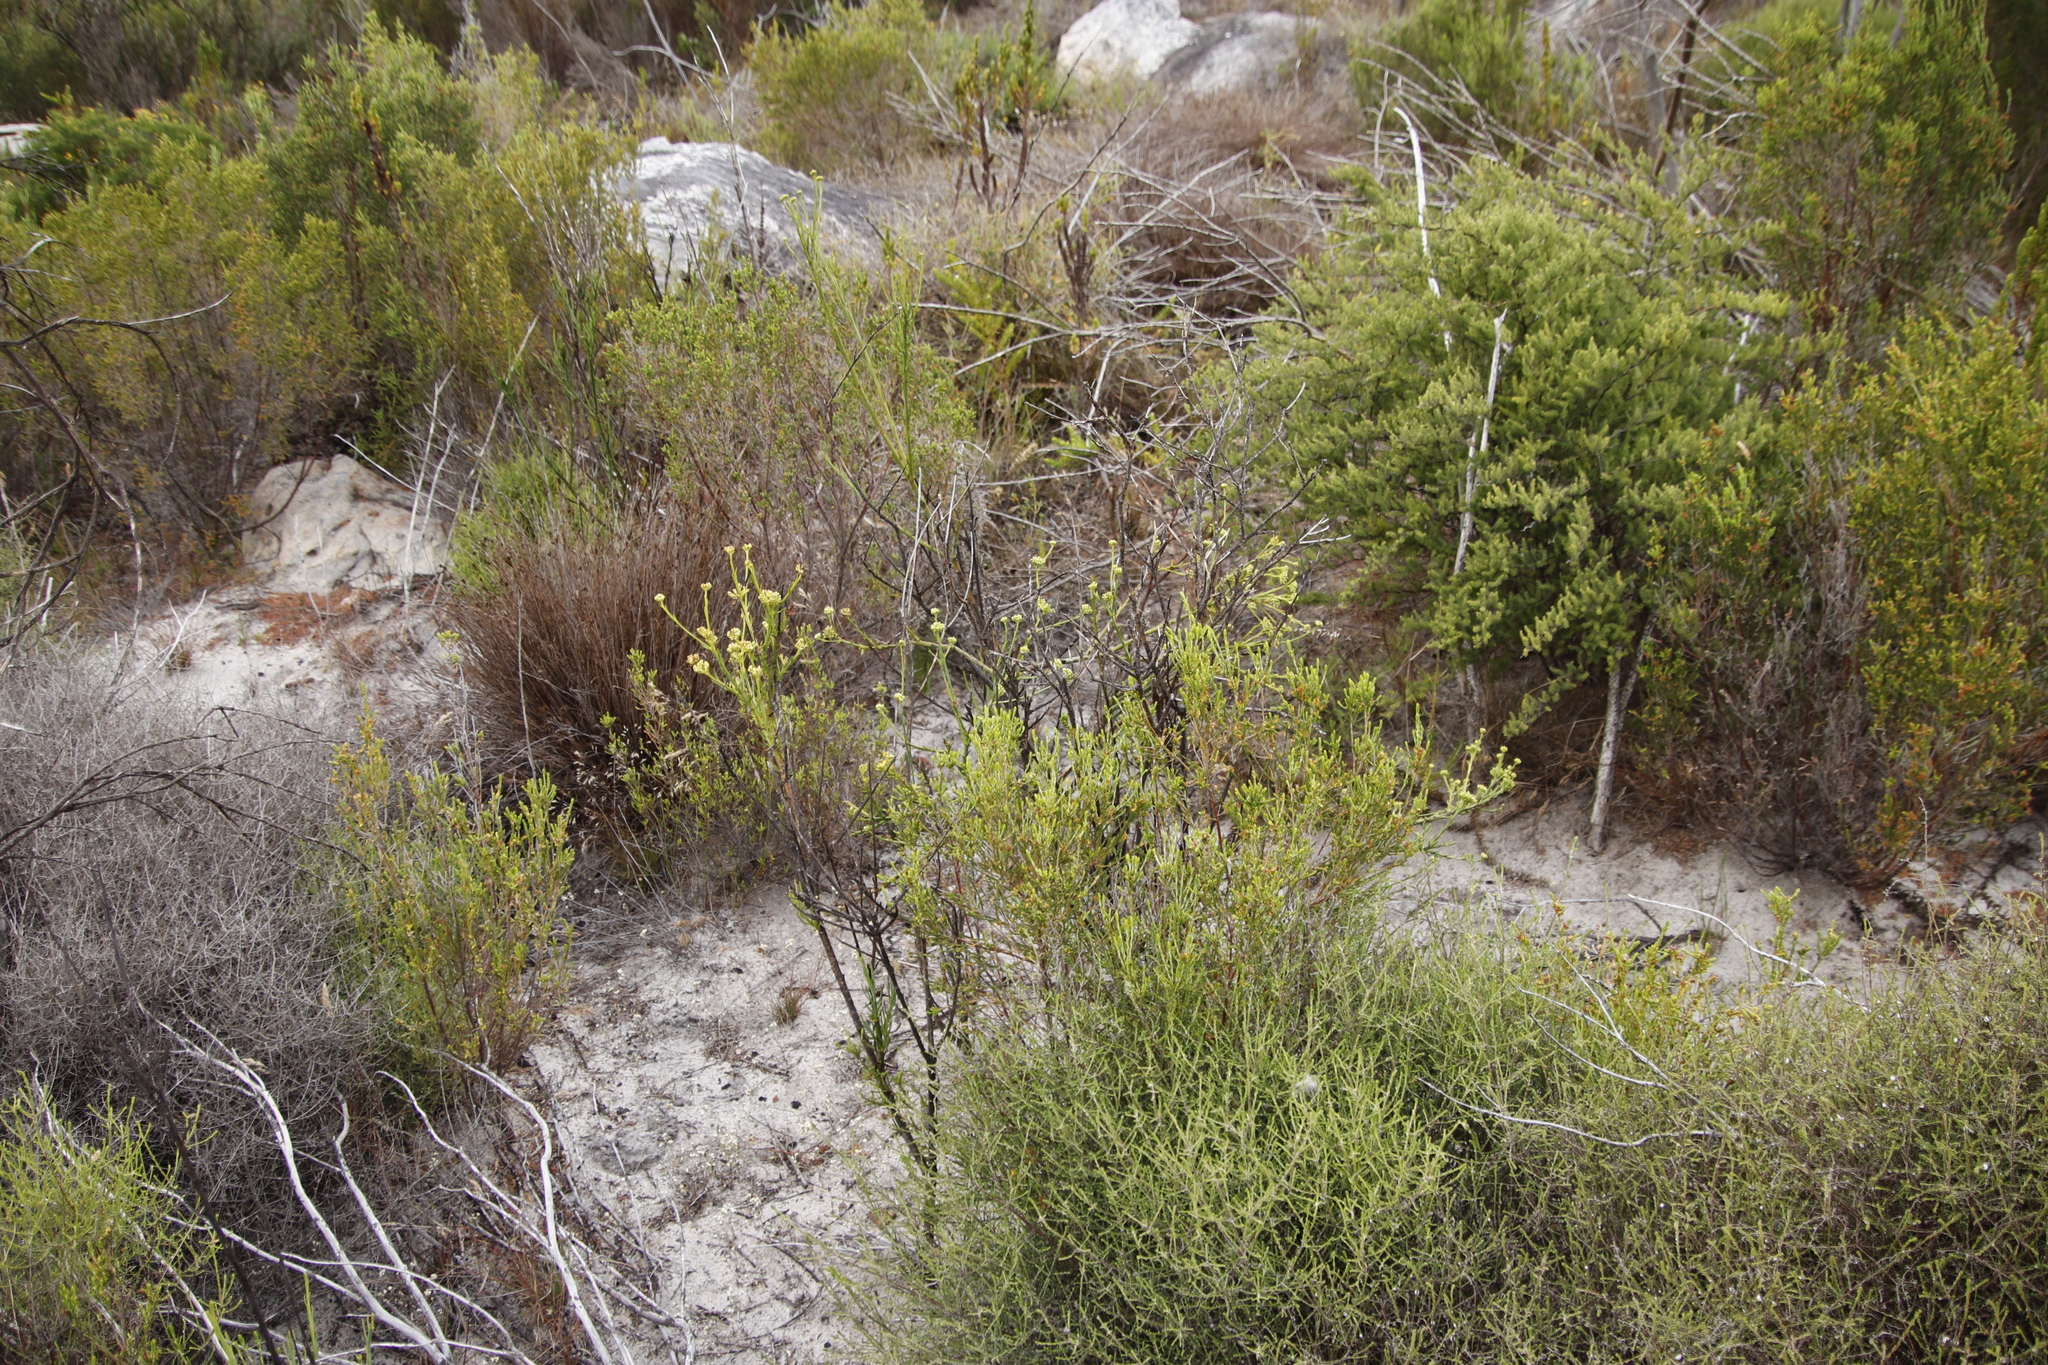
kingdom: Plantae
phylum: Tracheophyta
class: Magnoliopsida
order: Santalales
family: Thesiaceae
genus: Thesium
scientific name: Thesium strictum
